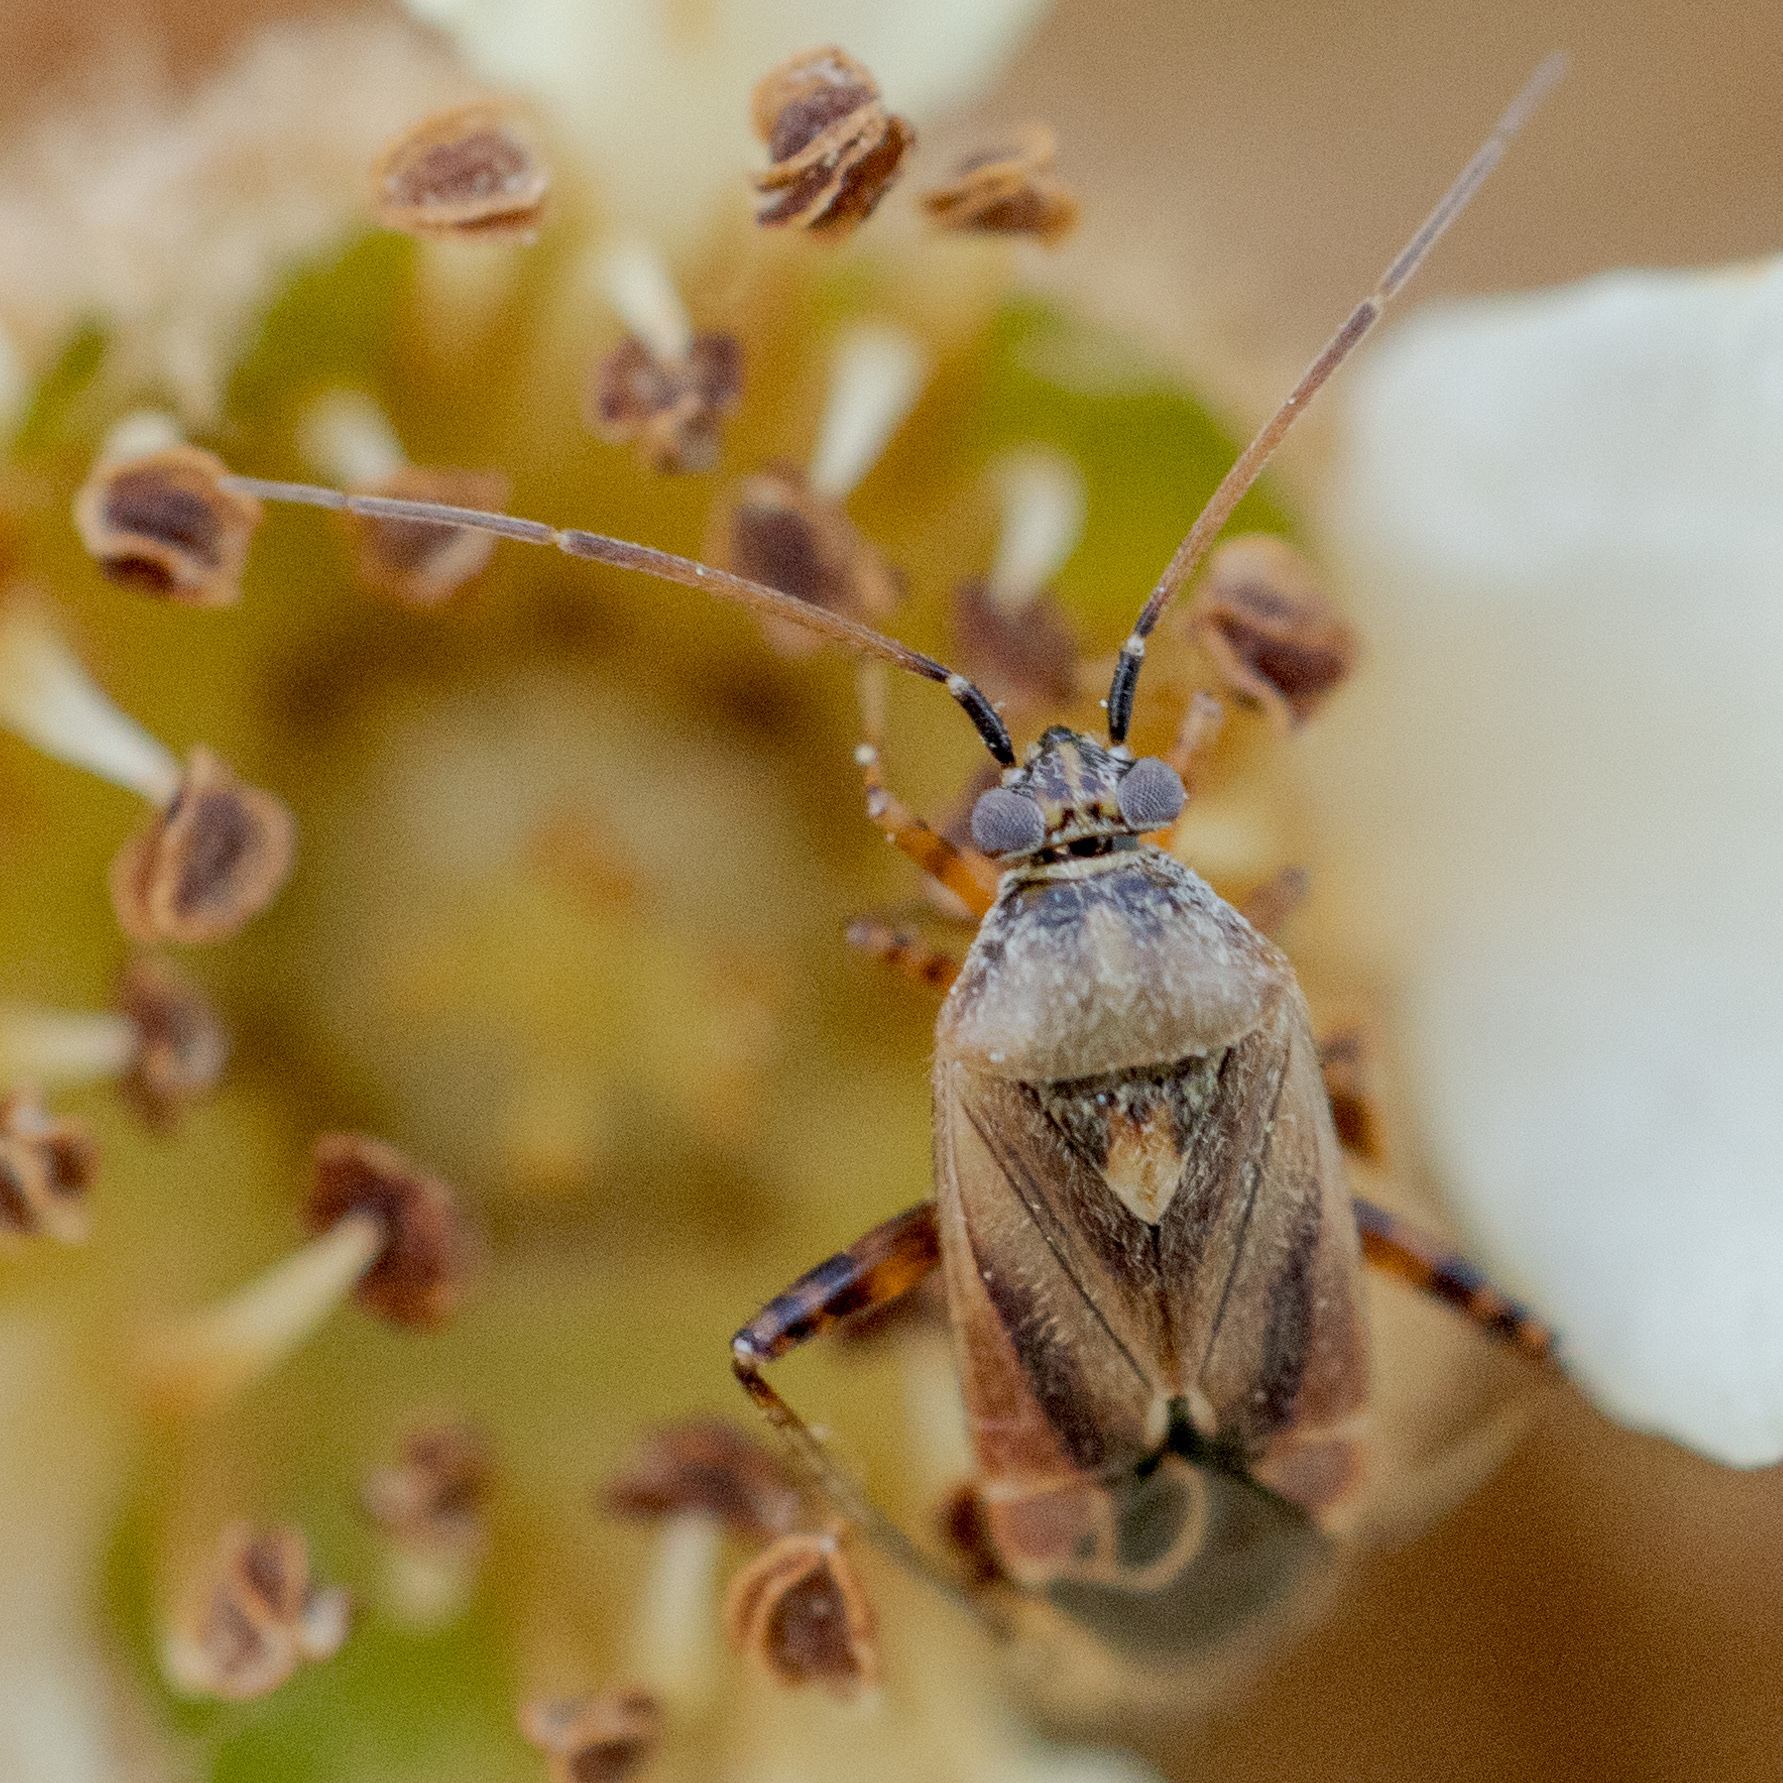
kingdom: Animalia
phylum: Arthropoda
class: Insecta
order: Hemiptera
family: Miridae
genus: Polymerus
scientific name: Polymerus basalis
